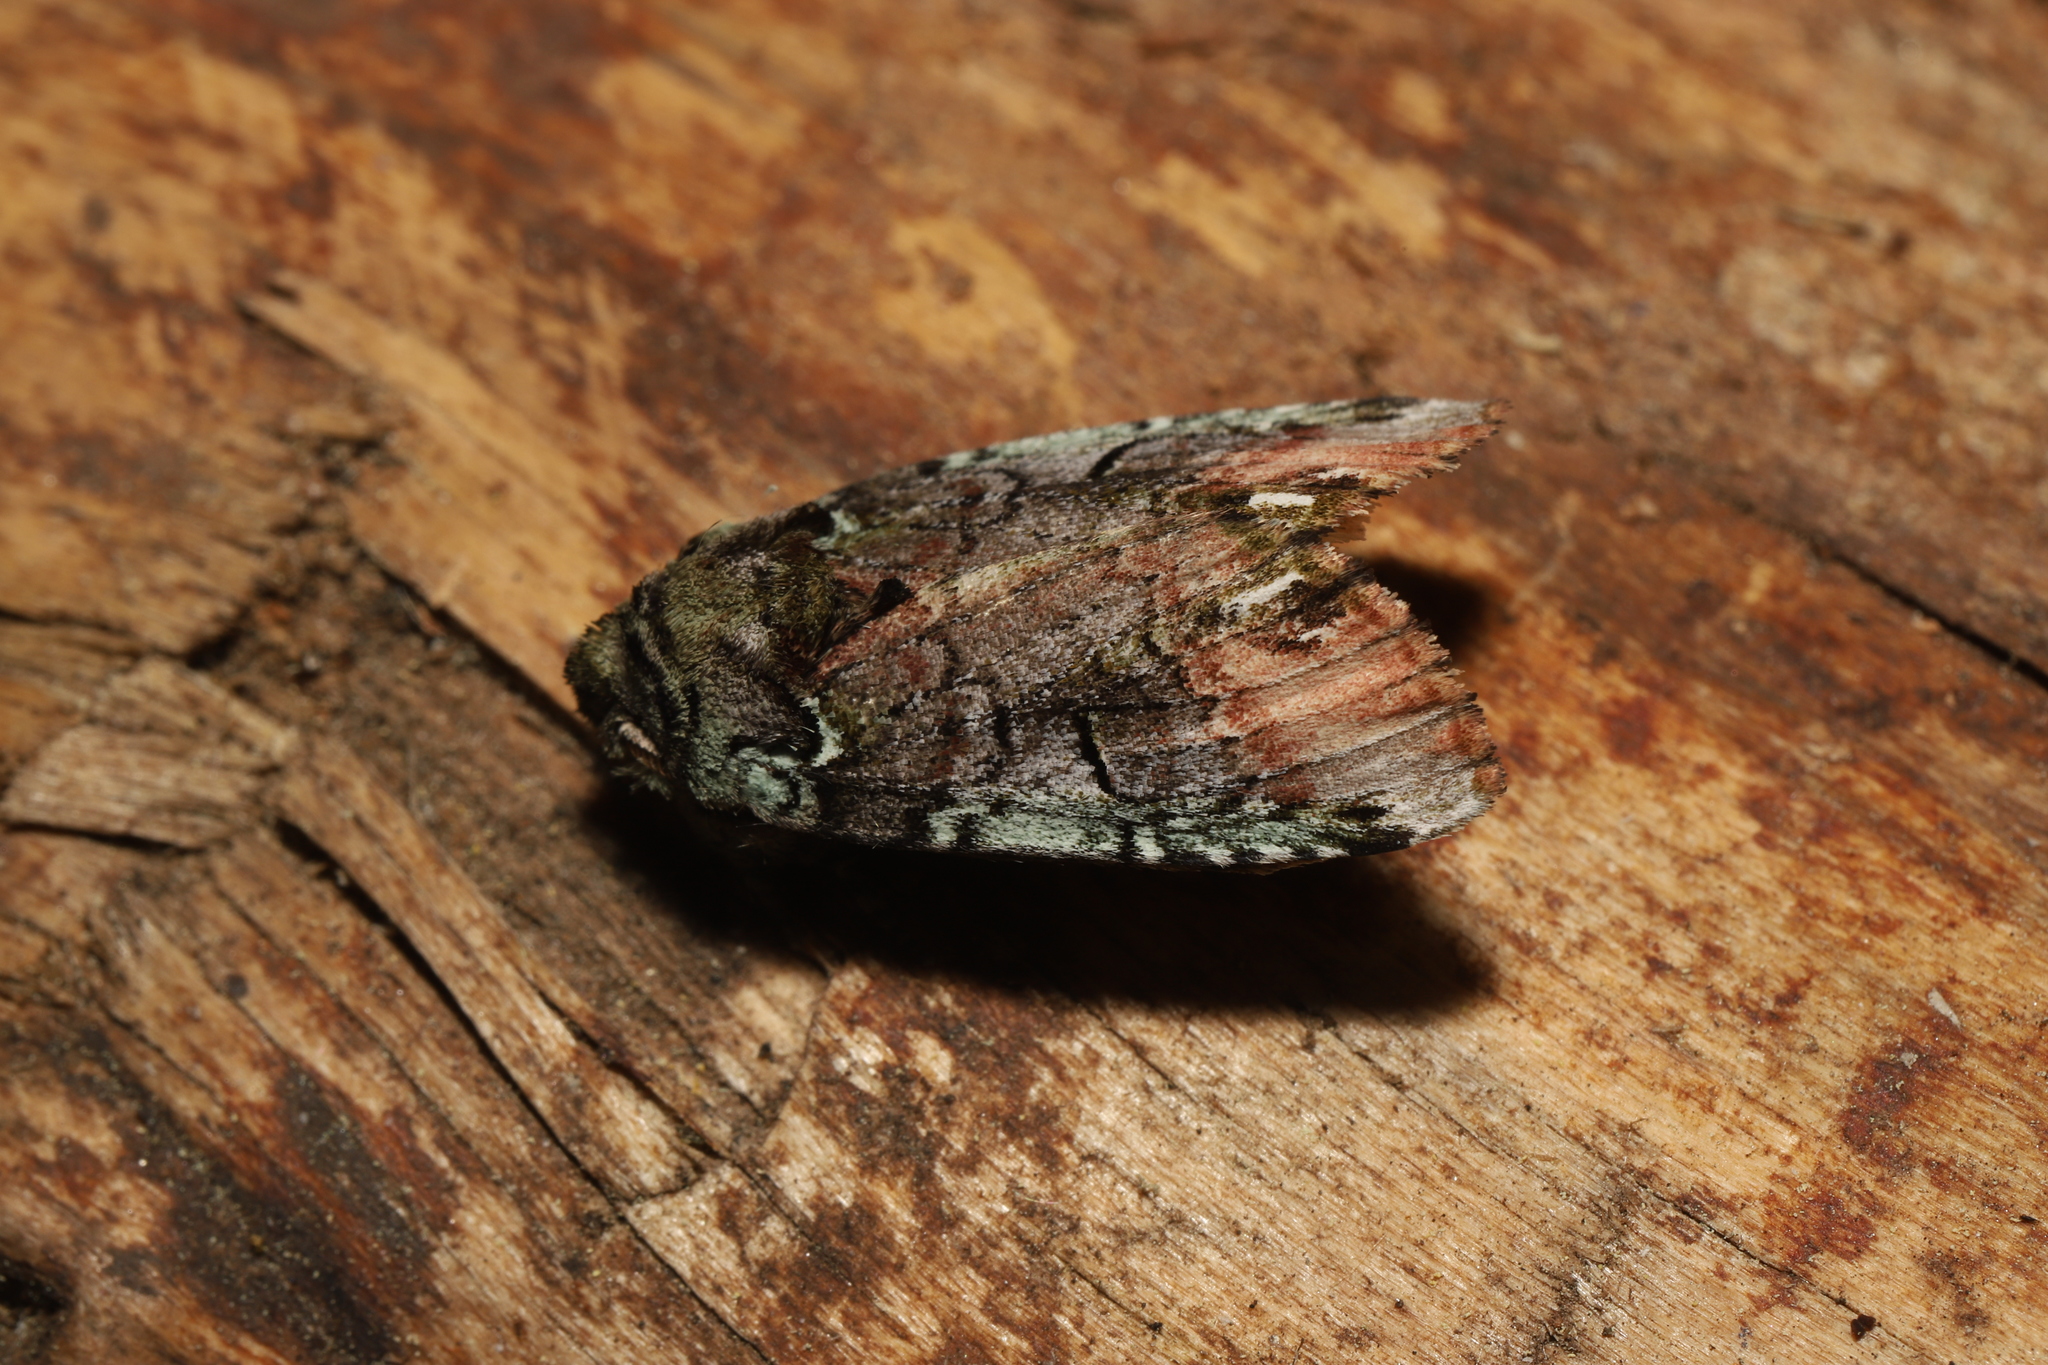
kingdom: Animalia
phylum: Arthropoda
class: Insecta
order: Lepidoptera
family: Notodontidae
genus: Schizura
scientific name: Schizura
